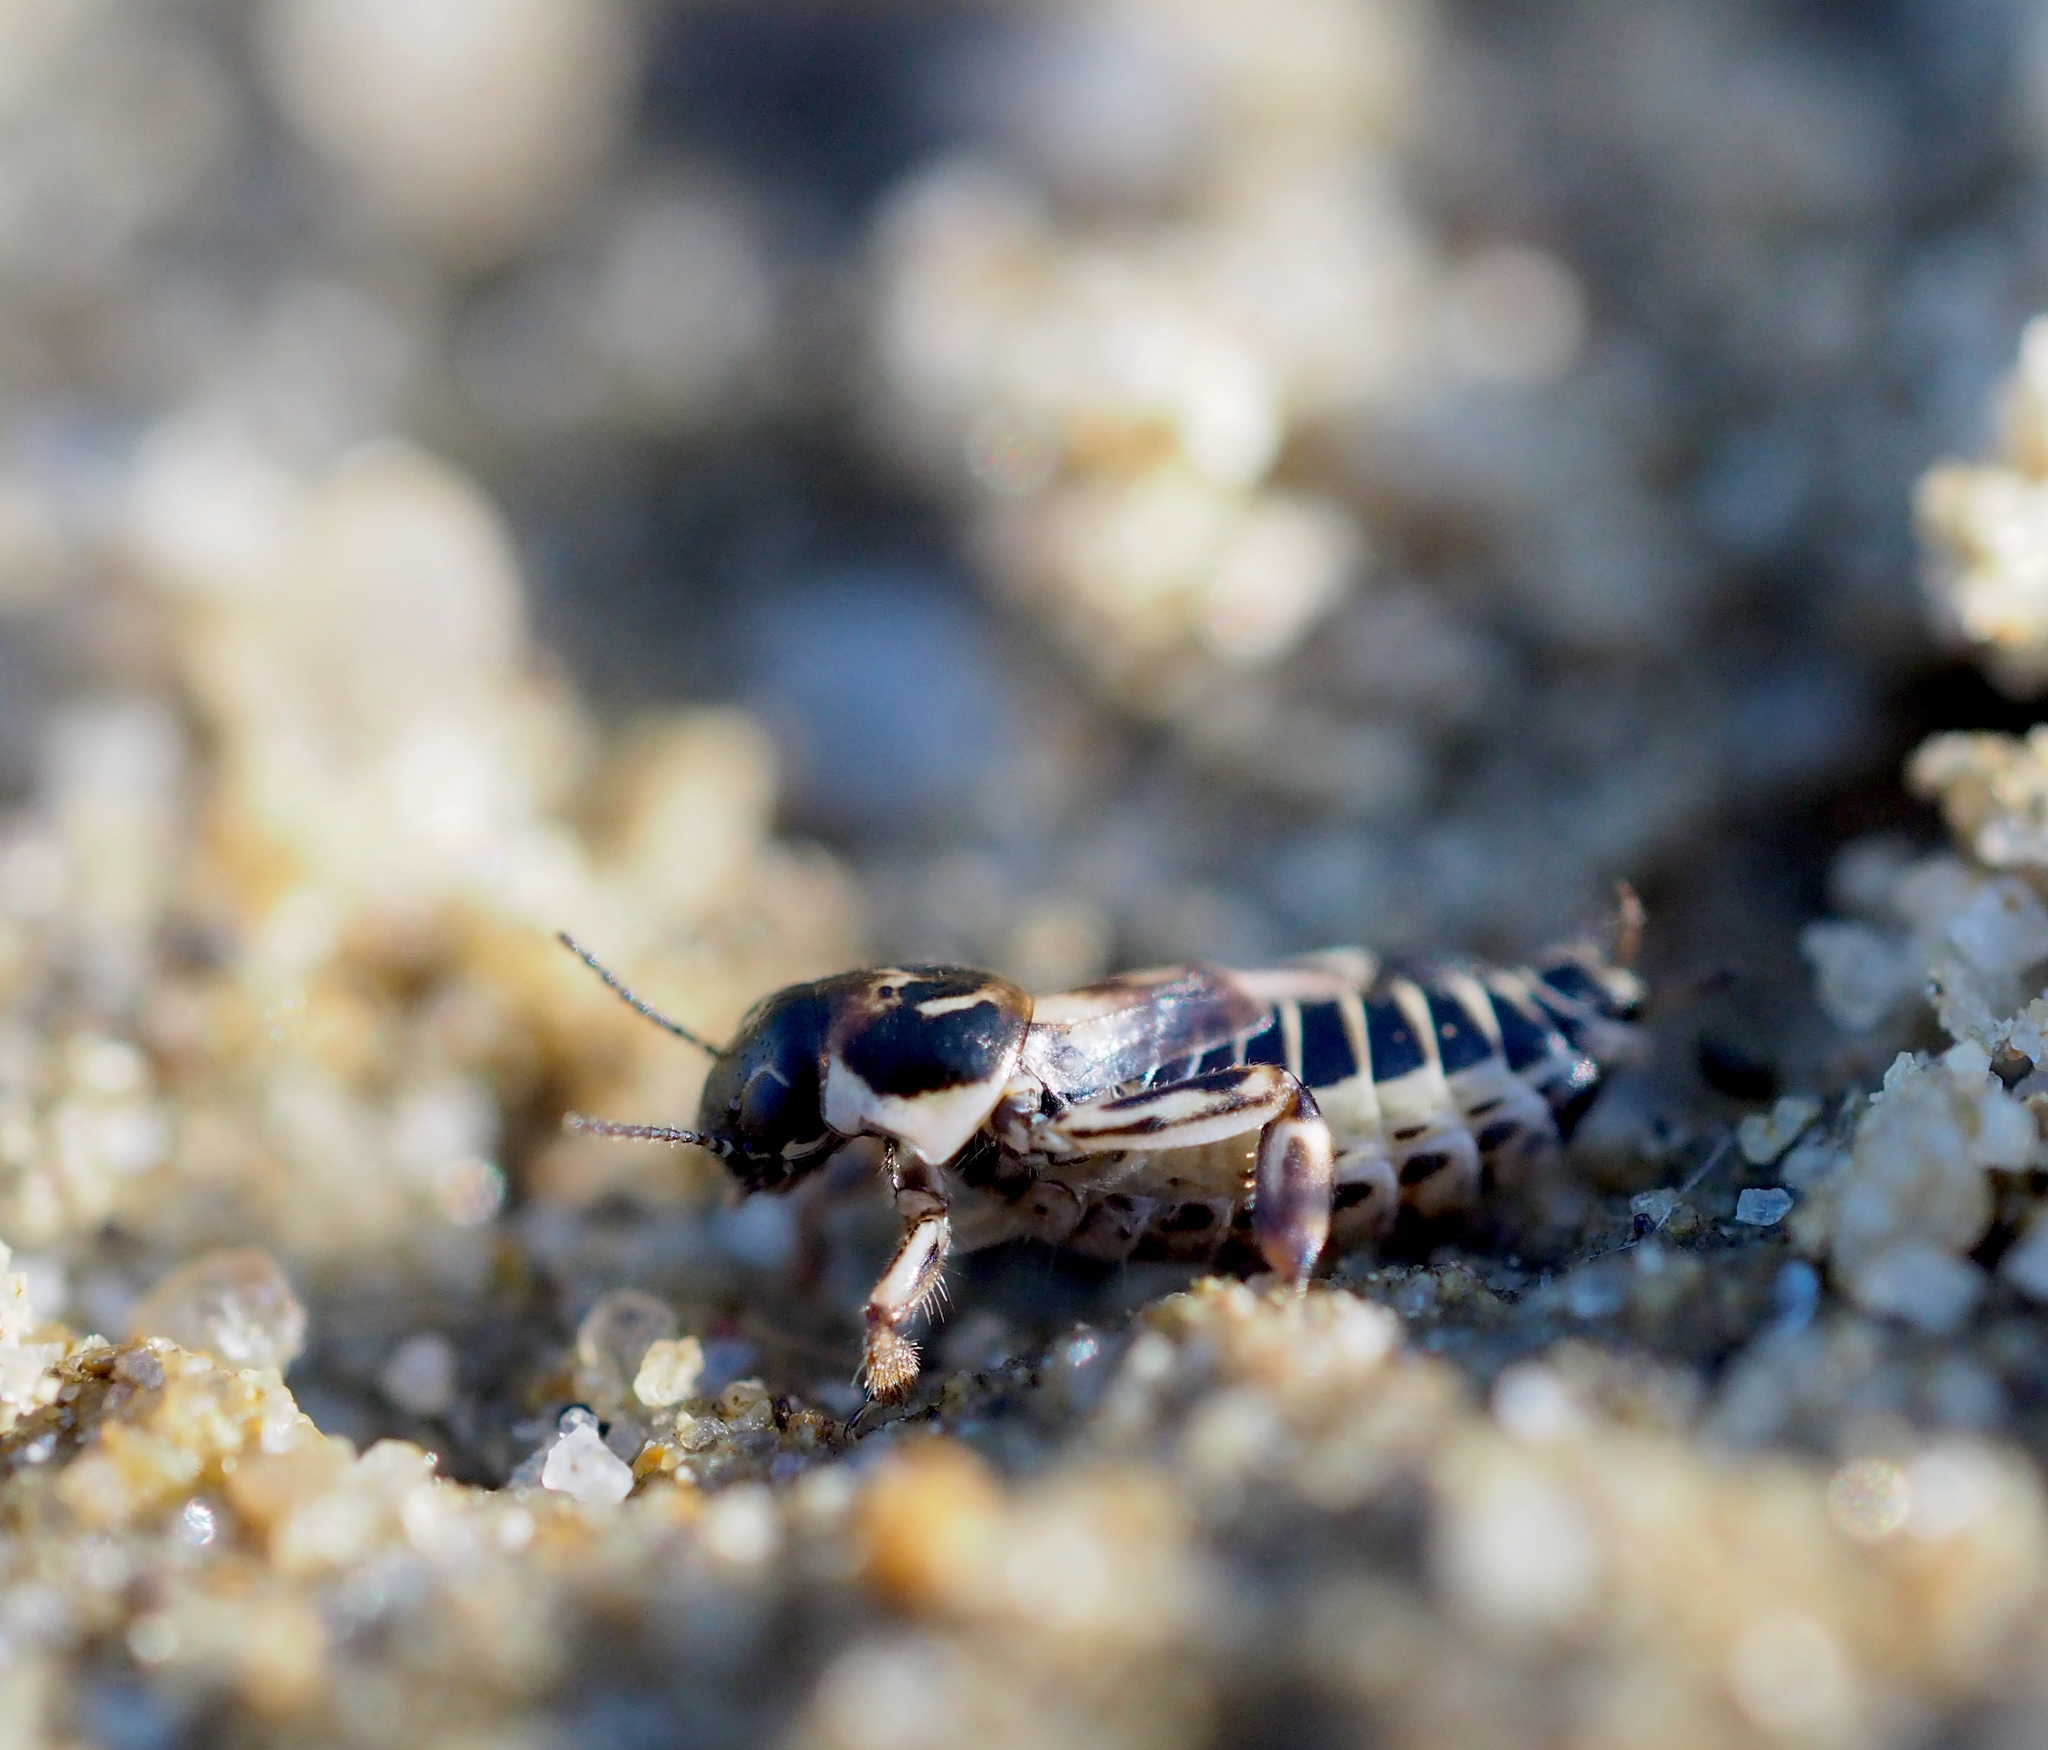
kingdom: Animalia
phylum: Arthropoda
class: Insecta
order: Orthoptera
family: Tridactylidae
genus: Xya
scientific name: Xya variegata
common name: Le tridactyle panaché
